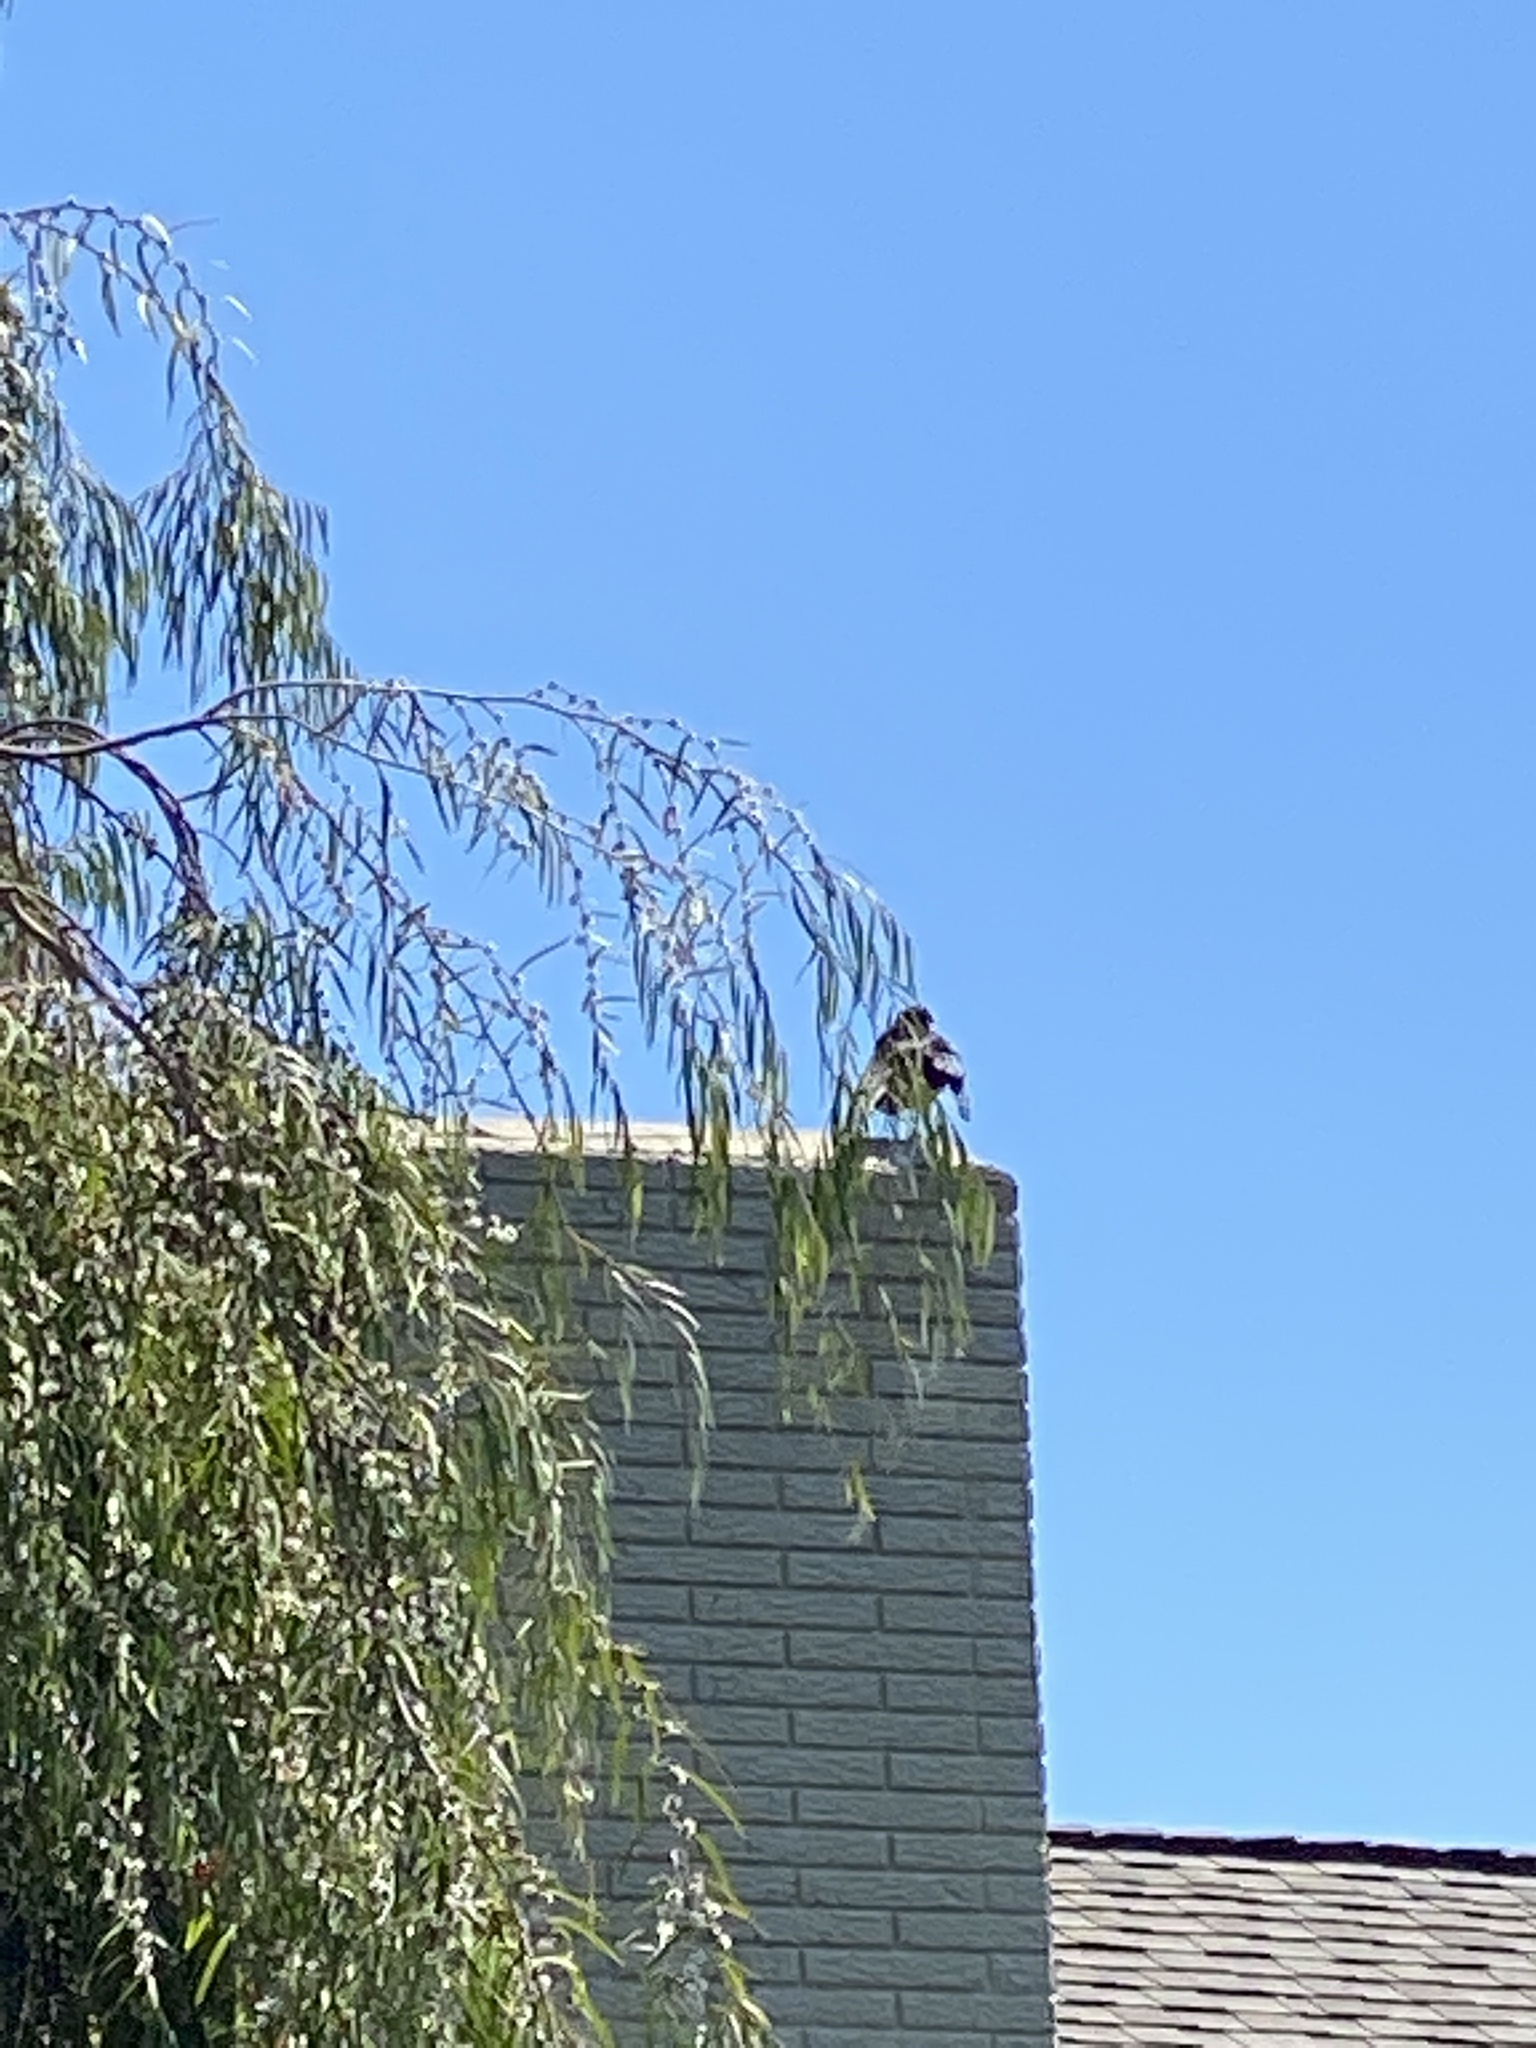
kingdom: Animalia
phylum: Chordata
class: Aves
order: Passeriformes
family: Corvidae
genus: Corvus
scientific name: Corvus brachyrhynchos
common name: American crow
